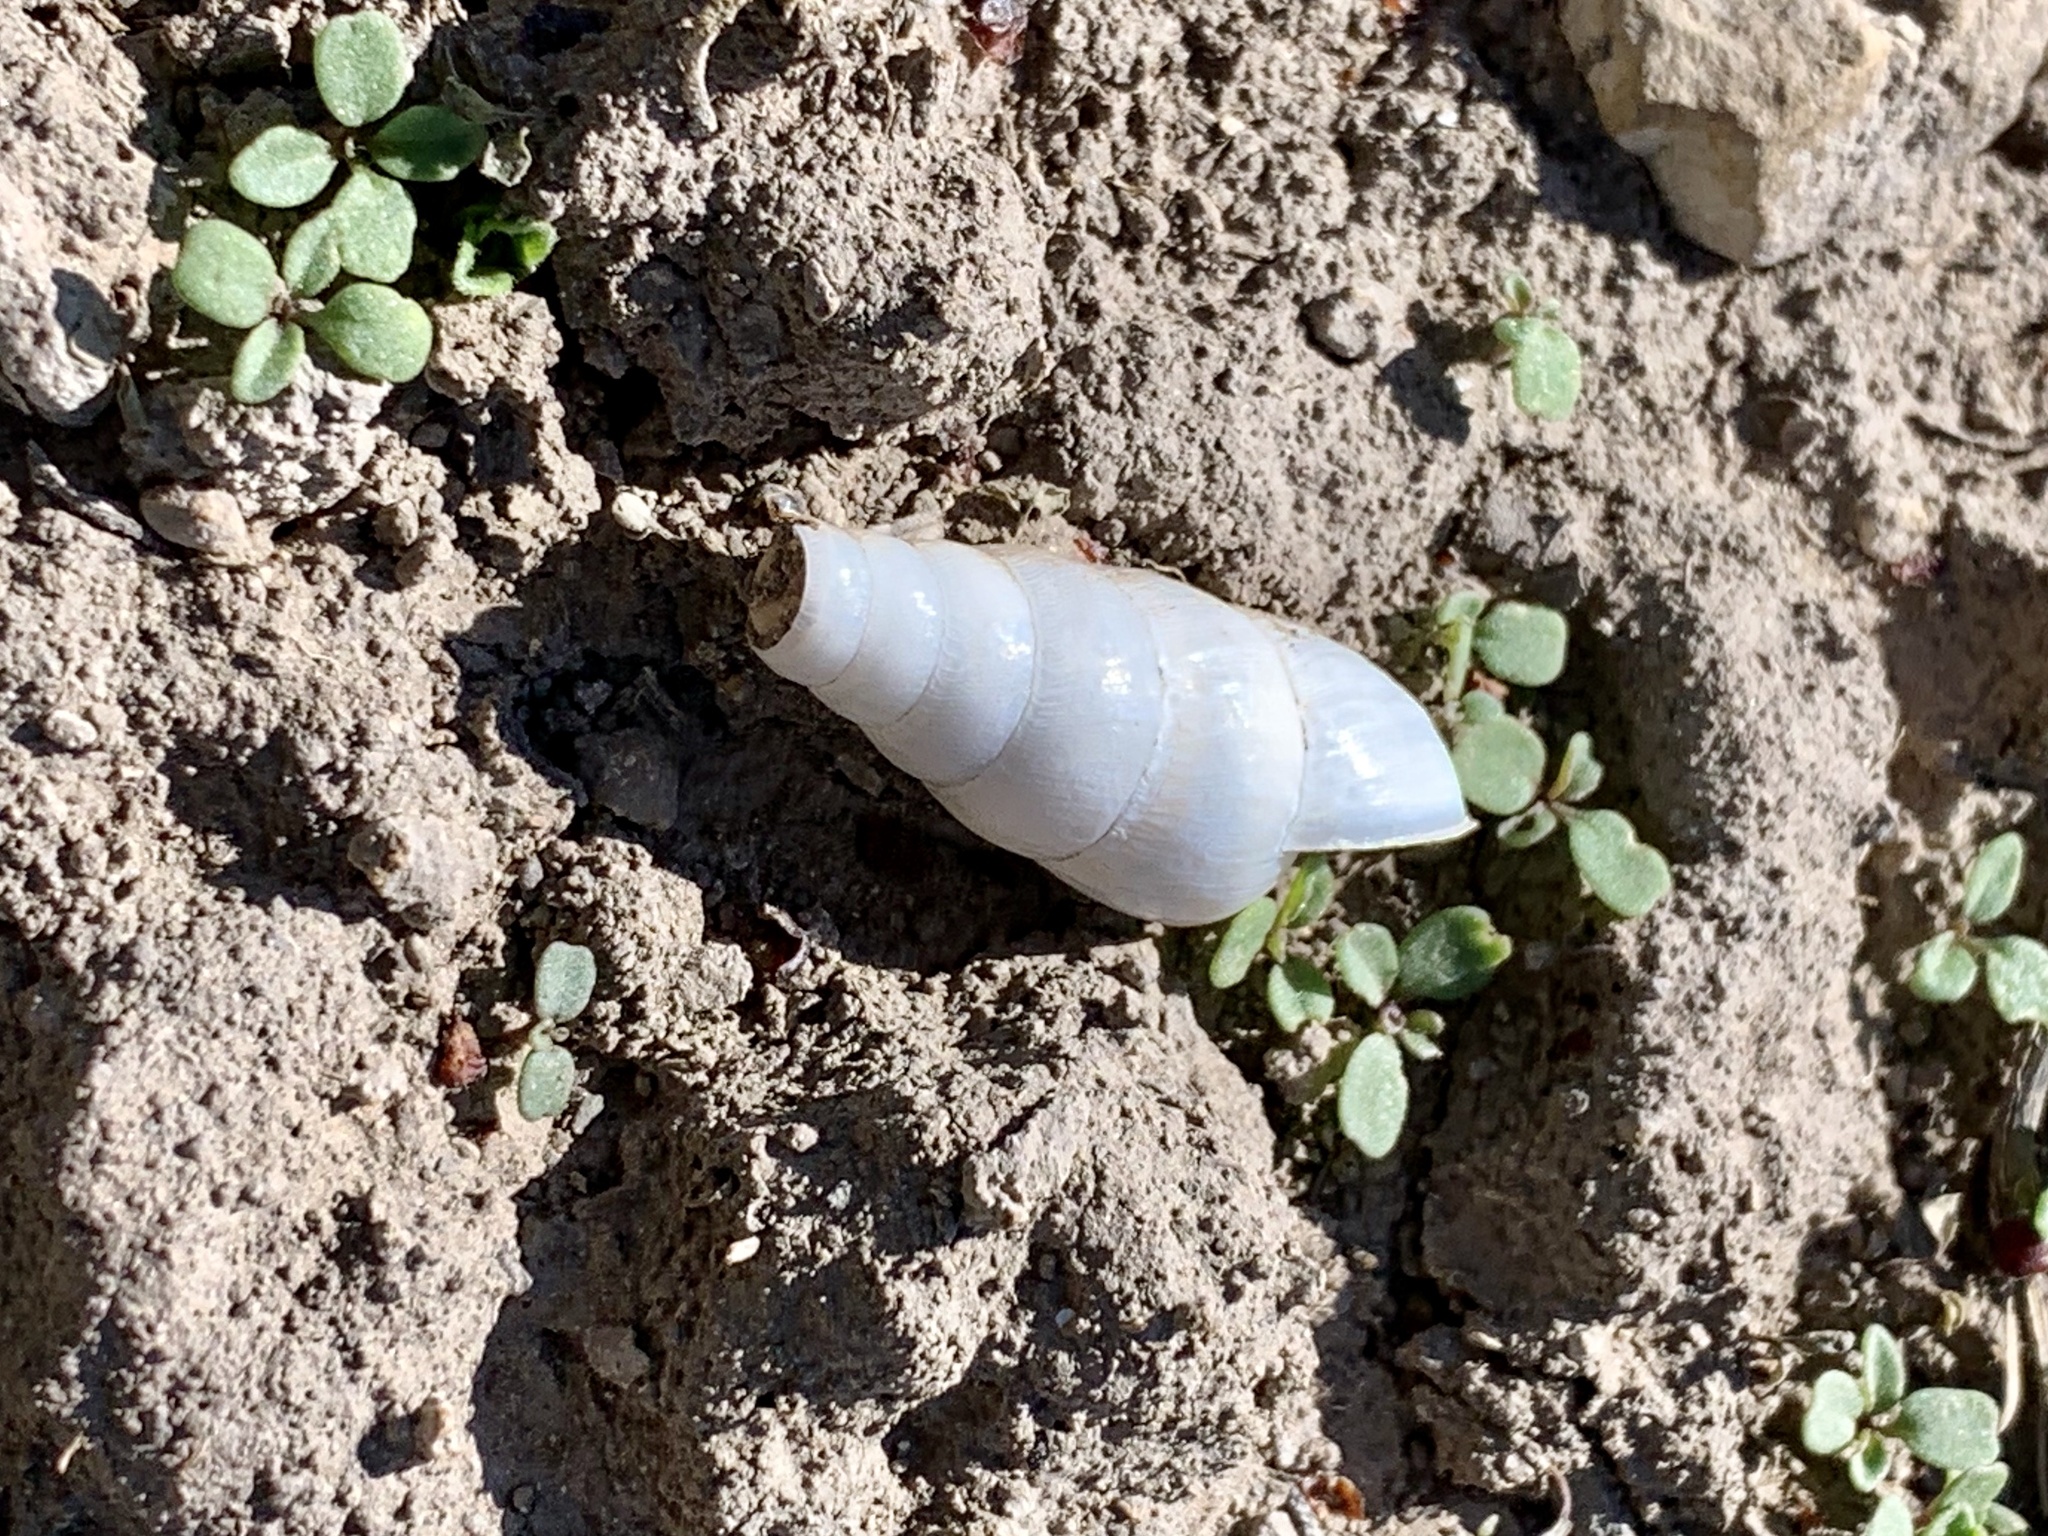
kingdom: Animalia
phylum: Mollusca
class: Gastropoda
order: Stylommatophora
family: Achatinidae
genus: Rumina
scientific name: Rumina decollata
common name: Decollate snail
